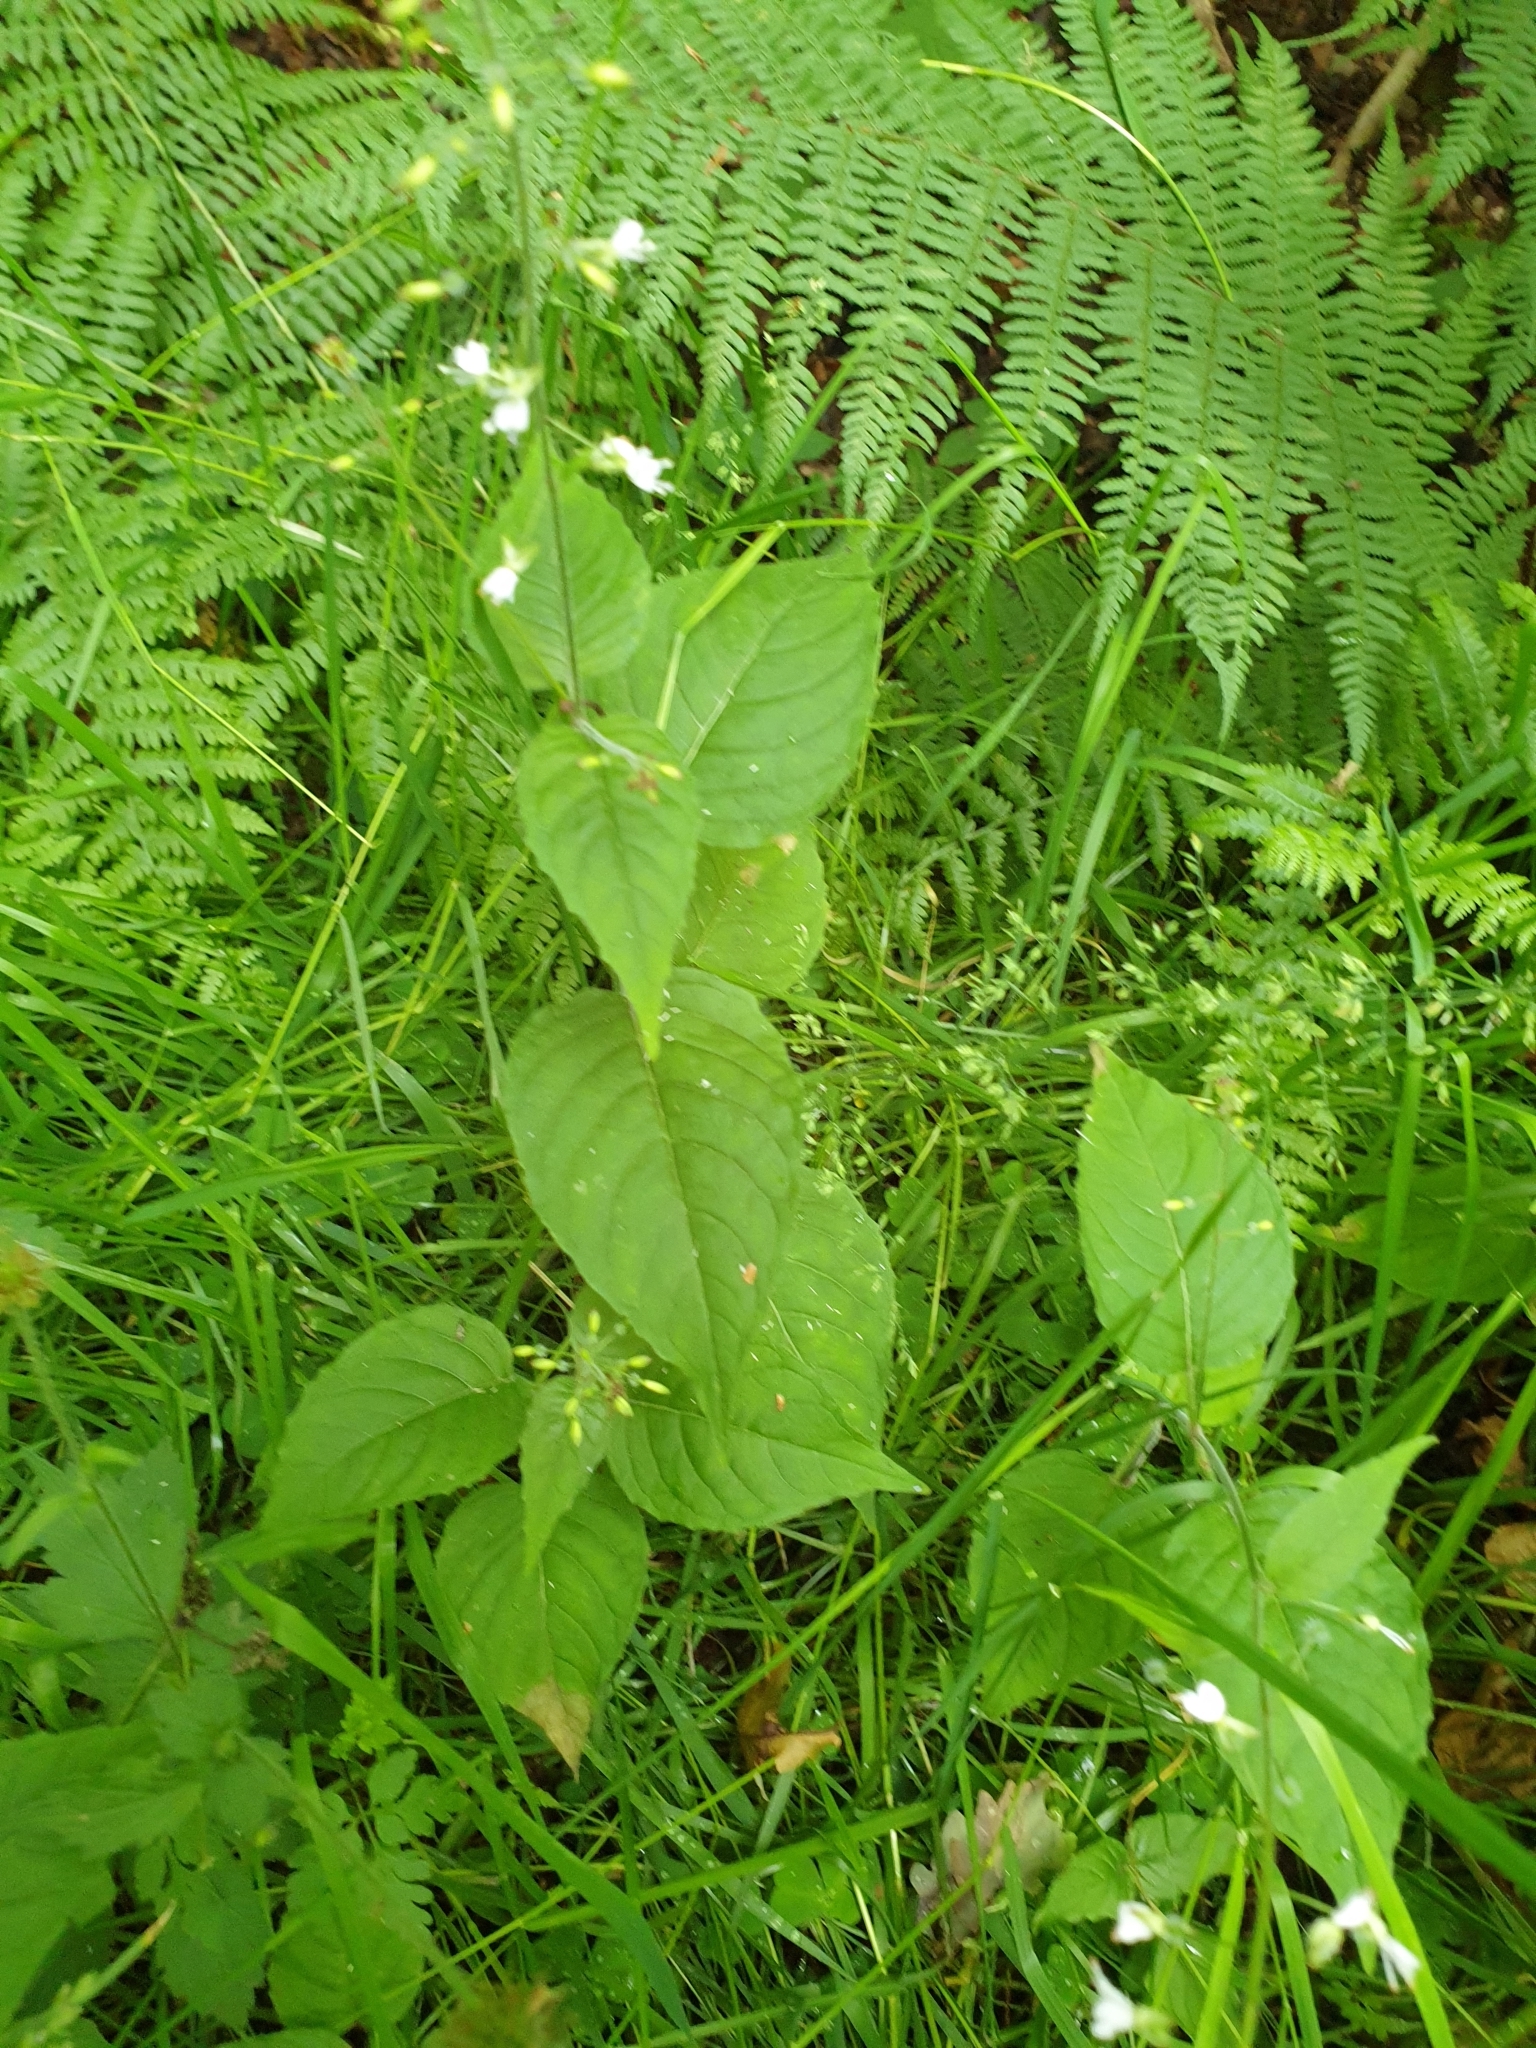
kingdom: Plantae
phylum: Tracheophyta
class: Magnoliopsida
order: Myrtales
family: Onagraceae
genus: Circaea
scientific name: Circaea lutetiana
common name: Enchanter's-nightshade
